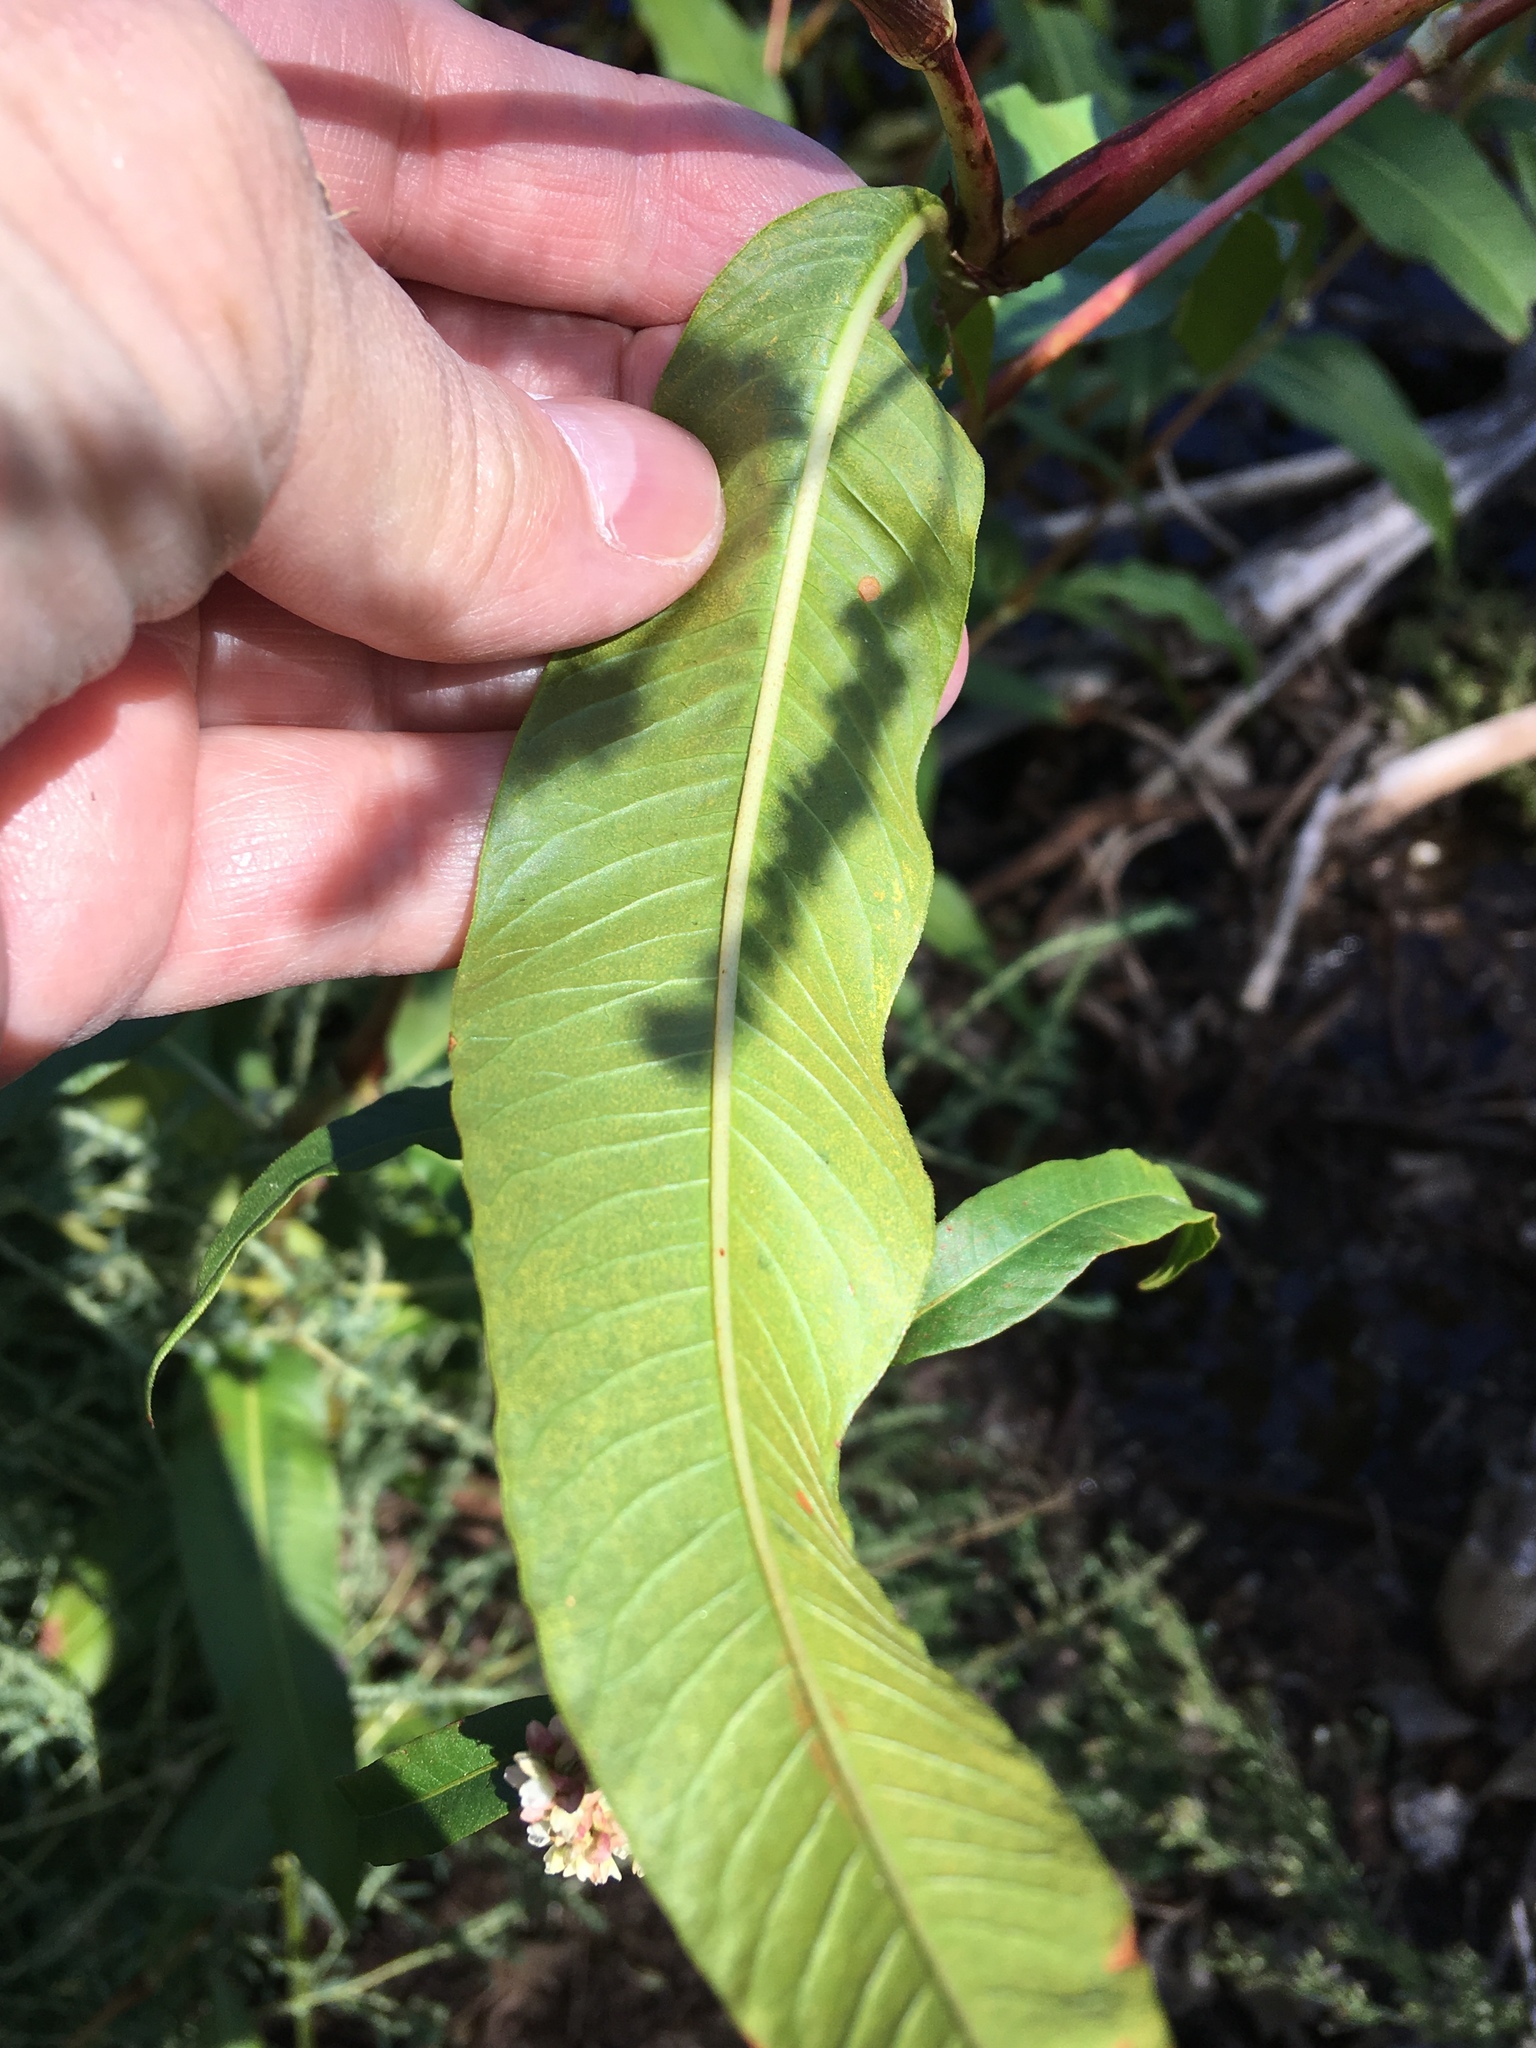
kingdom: Plantae
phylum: Tracheophyta
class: Magnoliopsida
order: Caryophyllales
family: Polygonaceae
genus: Persicaria
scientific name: Persicaria lapathifolia
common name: Curlytop knotweed
